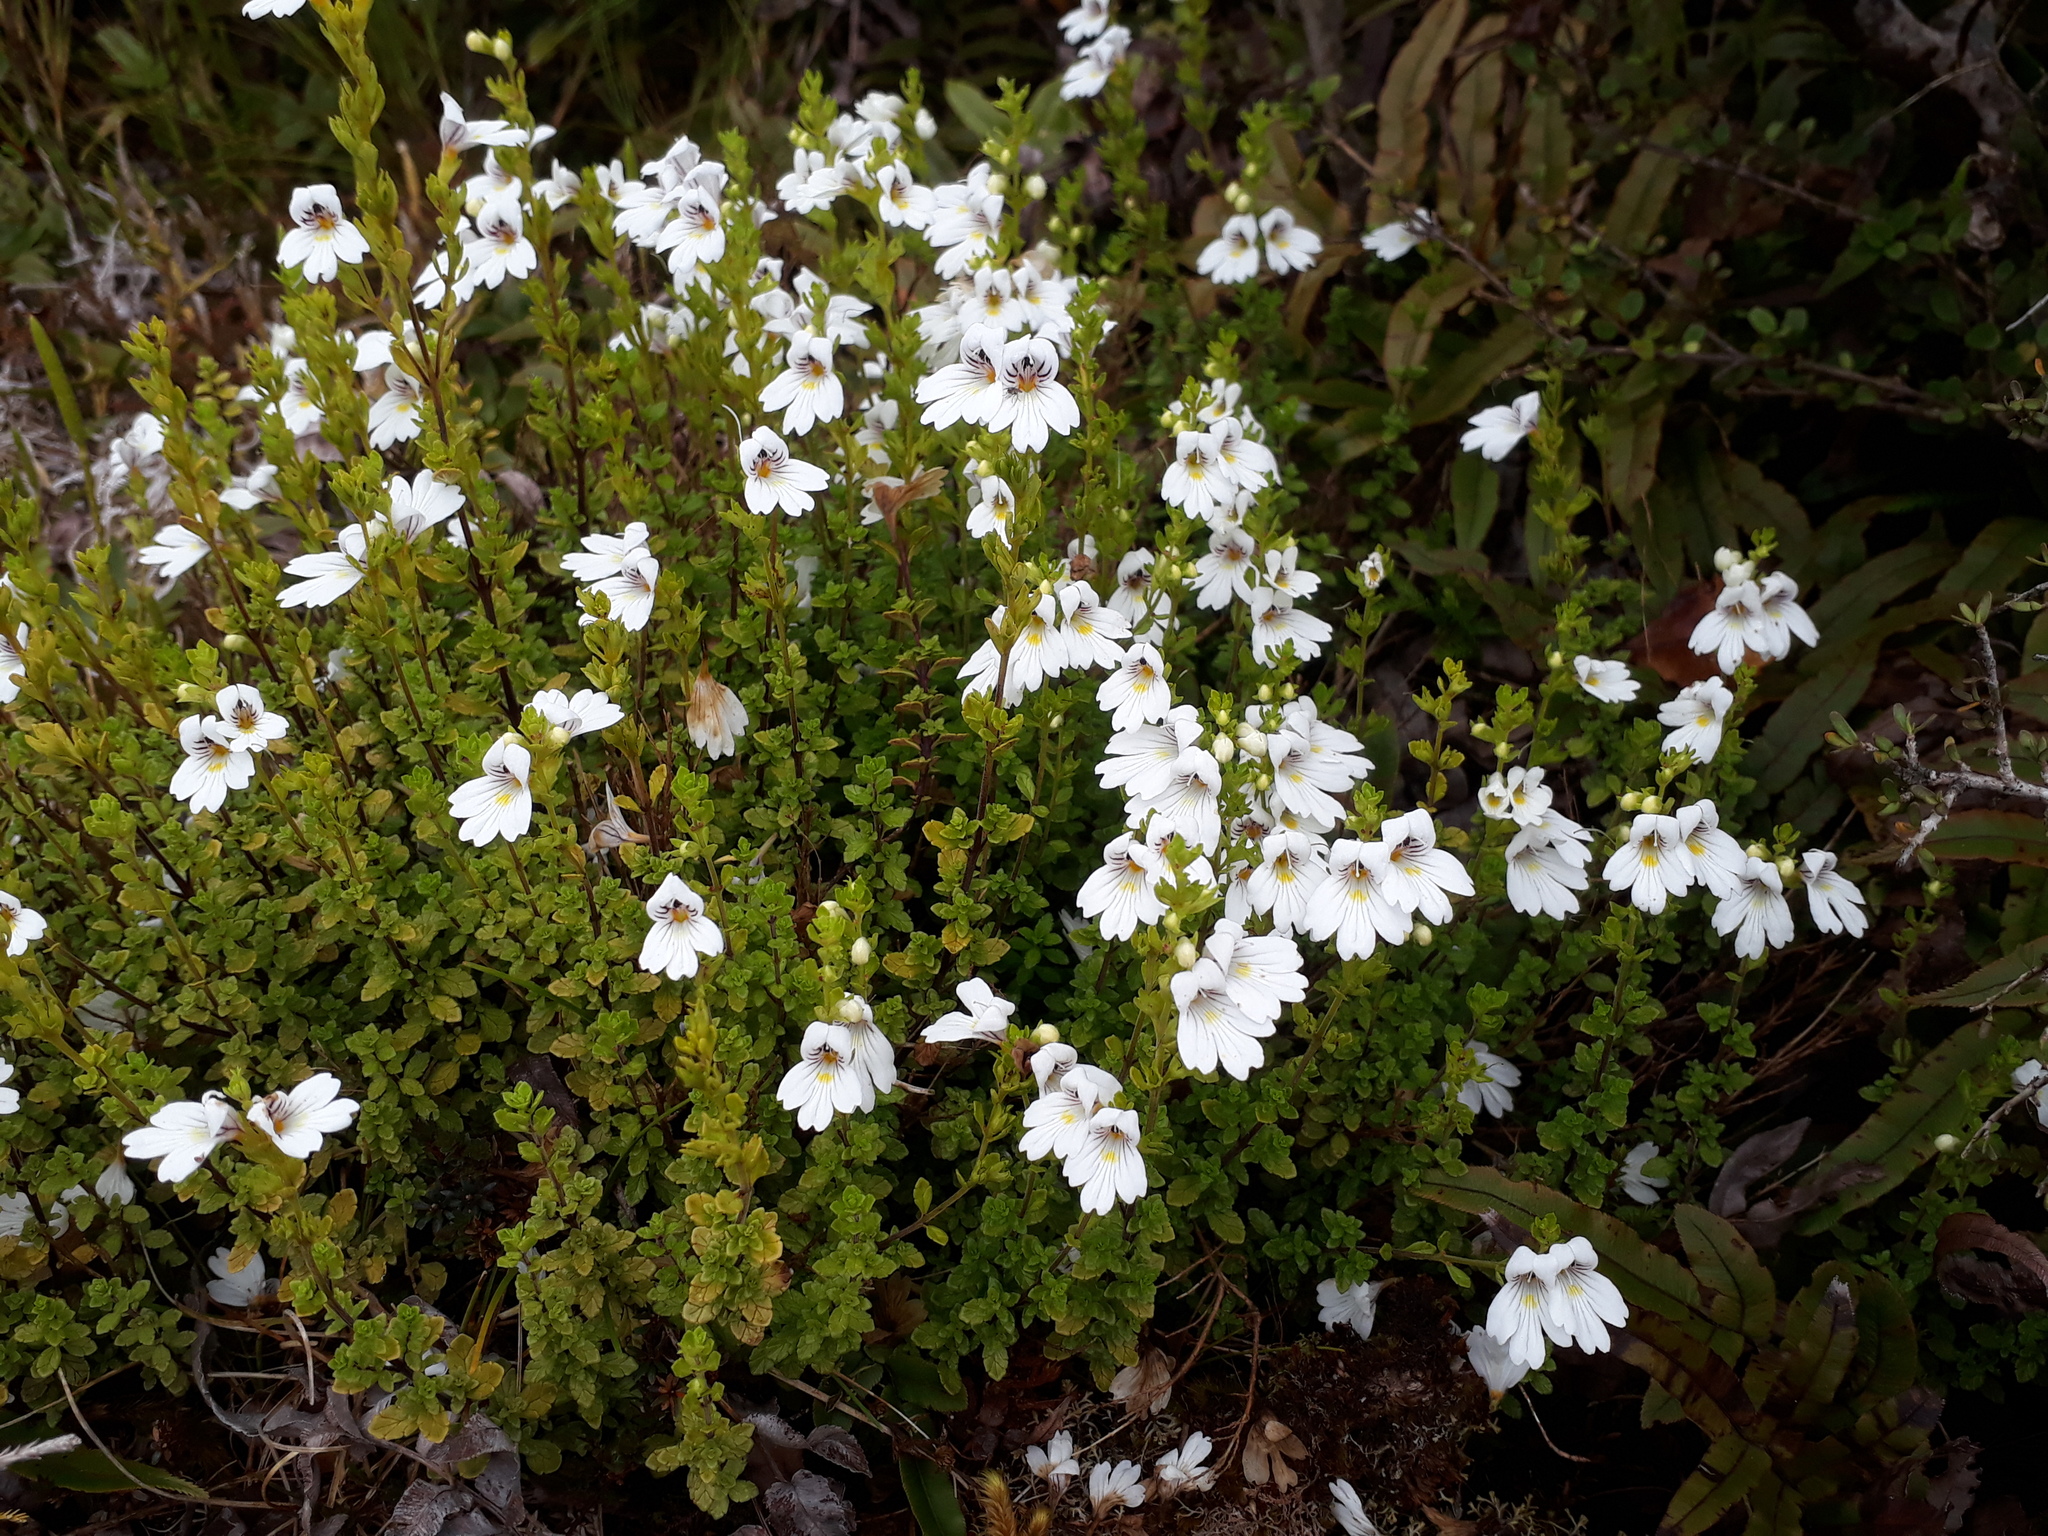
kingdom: Plantae
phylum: Tracheophyta
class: Magnoliopsida
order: Lamiales
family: Orobanchaceae
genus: Euphrasia
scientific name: Euphrasia cuneata
